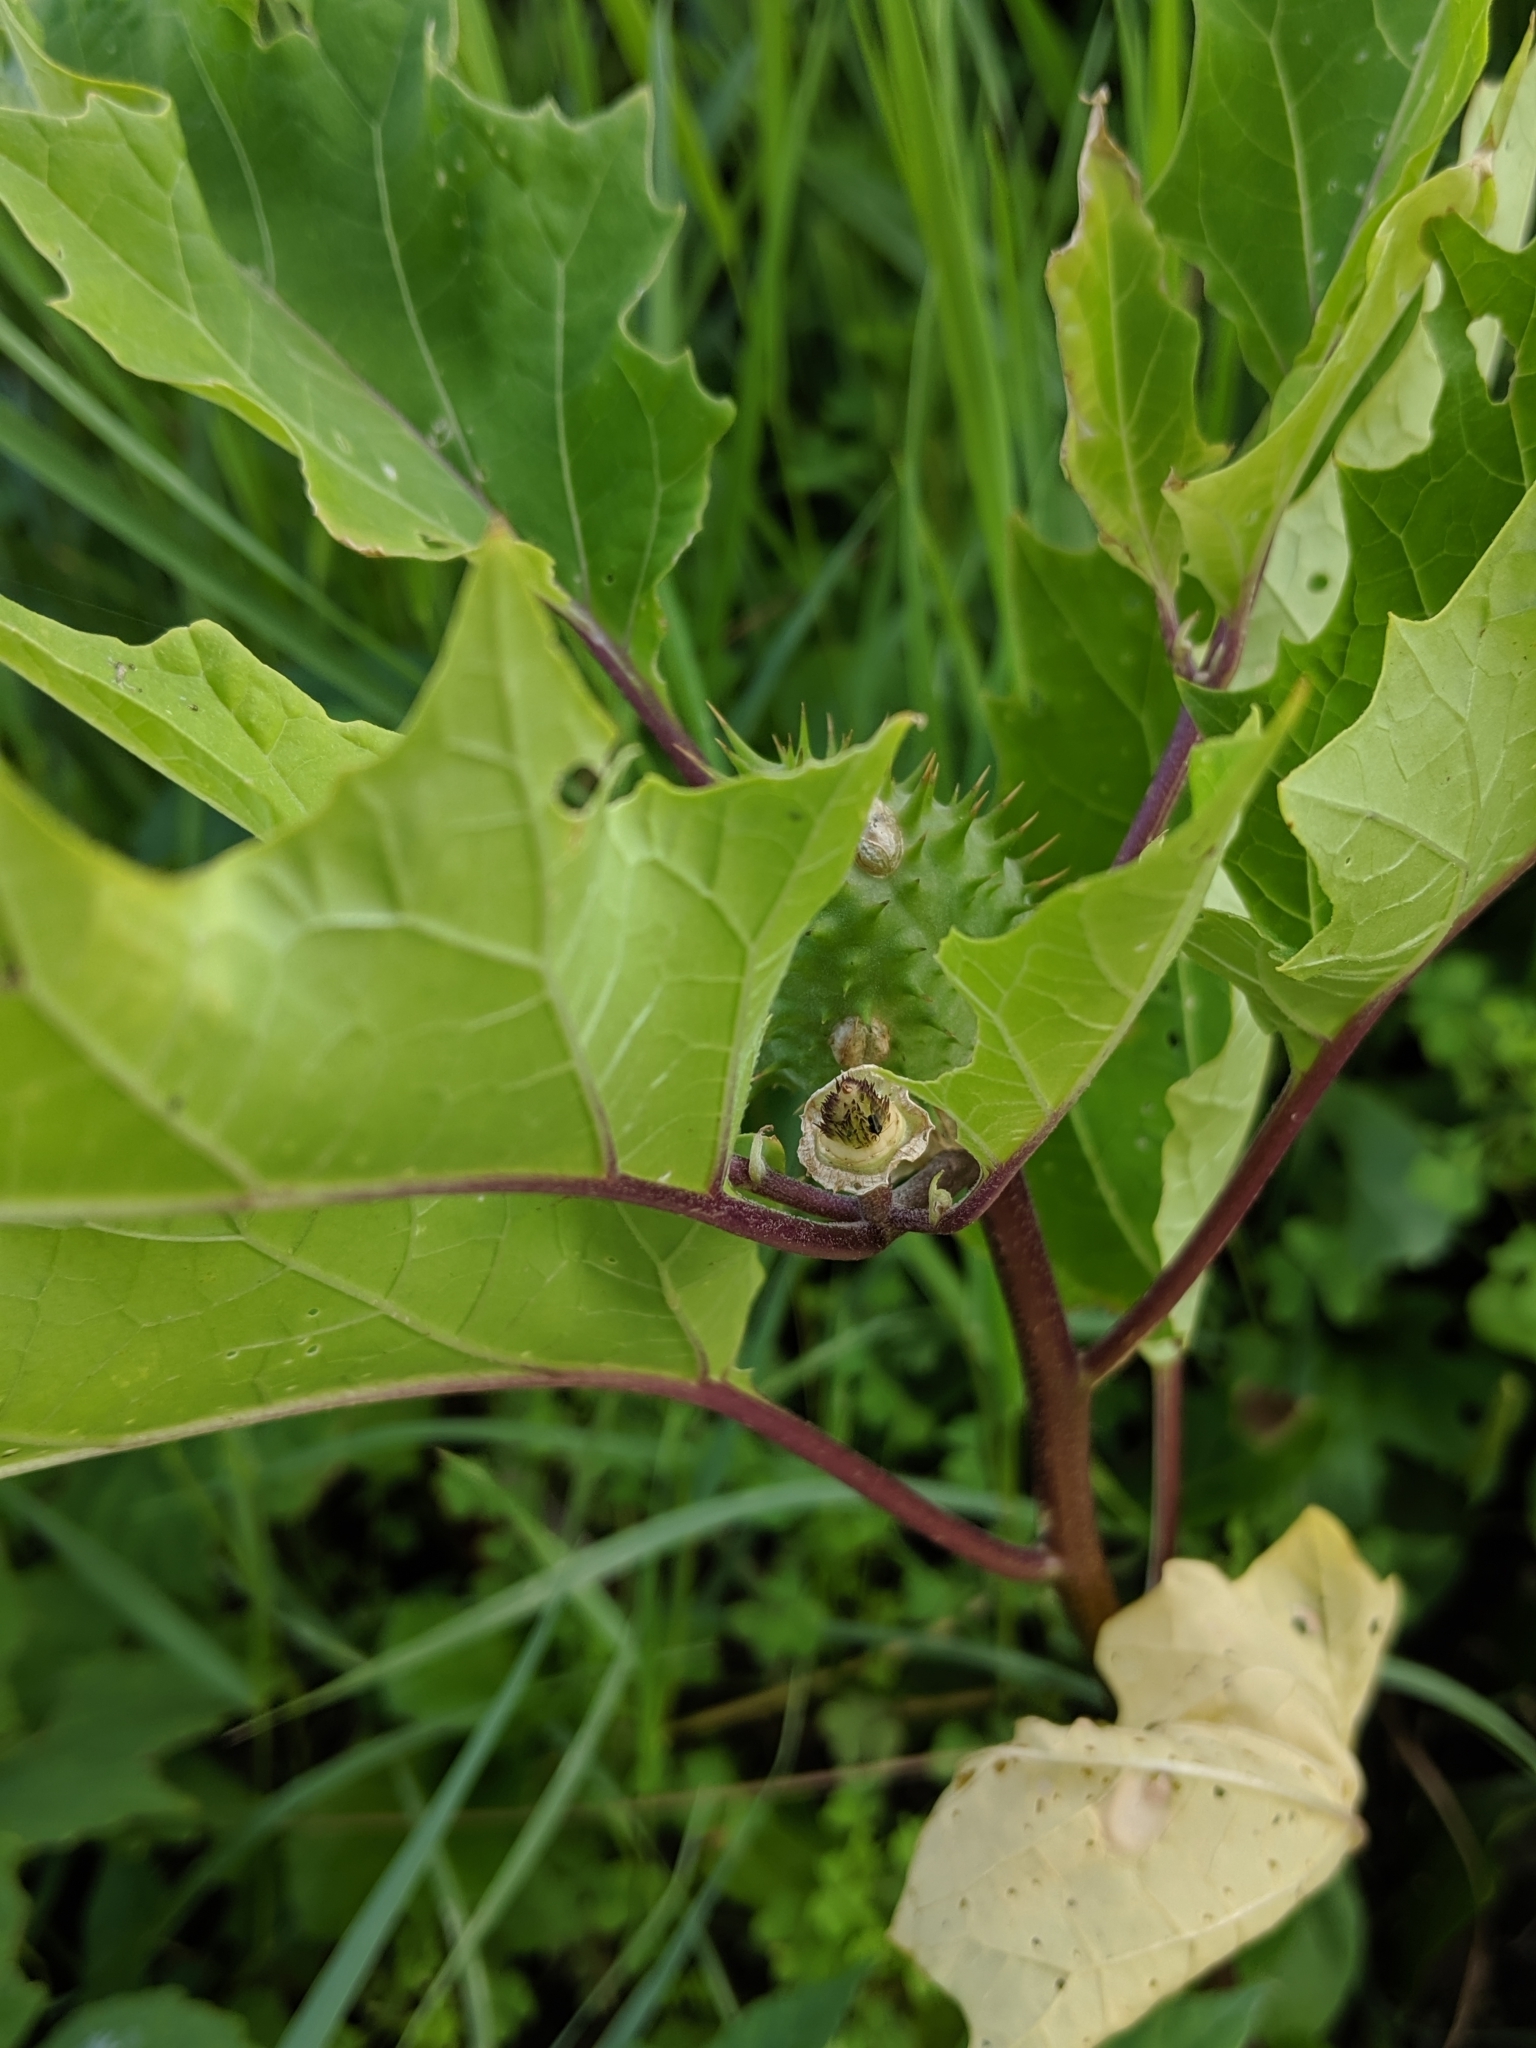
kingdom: Plantae
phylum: Tracheophyta
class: Magnoliopsida
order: Solanales
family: Solanaceae
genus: Datura
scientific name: Datura stramonium
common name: Thorn-apple
